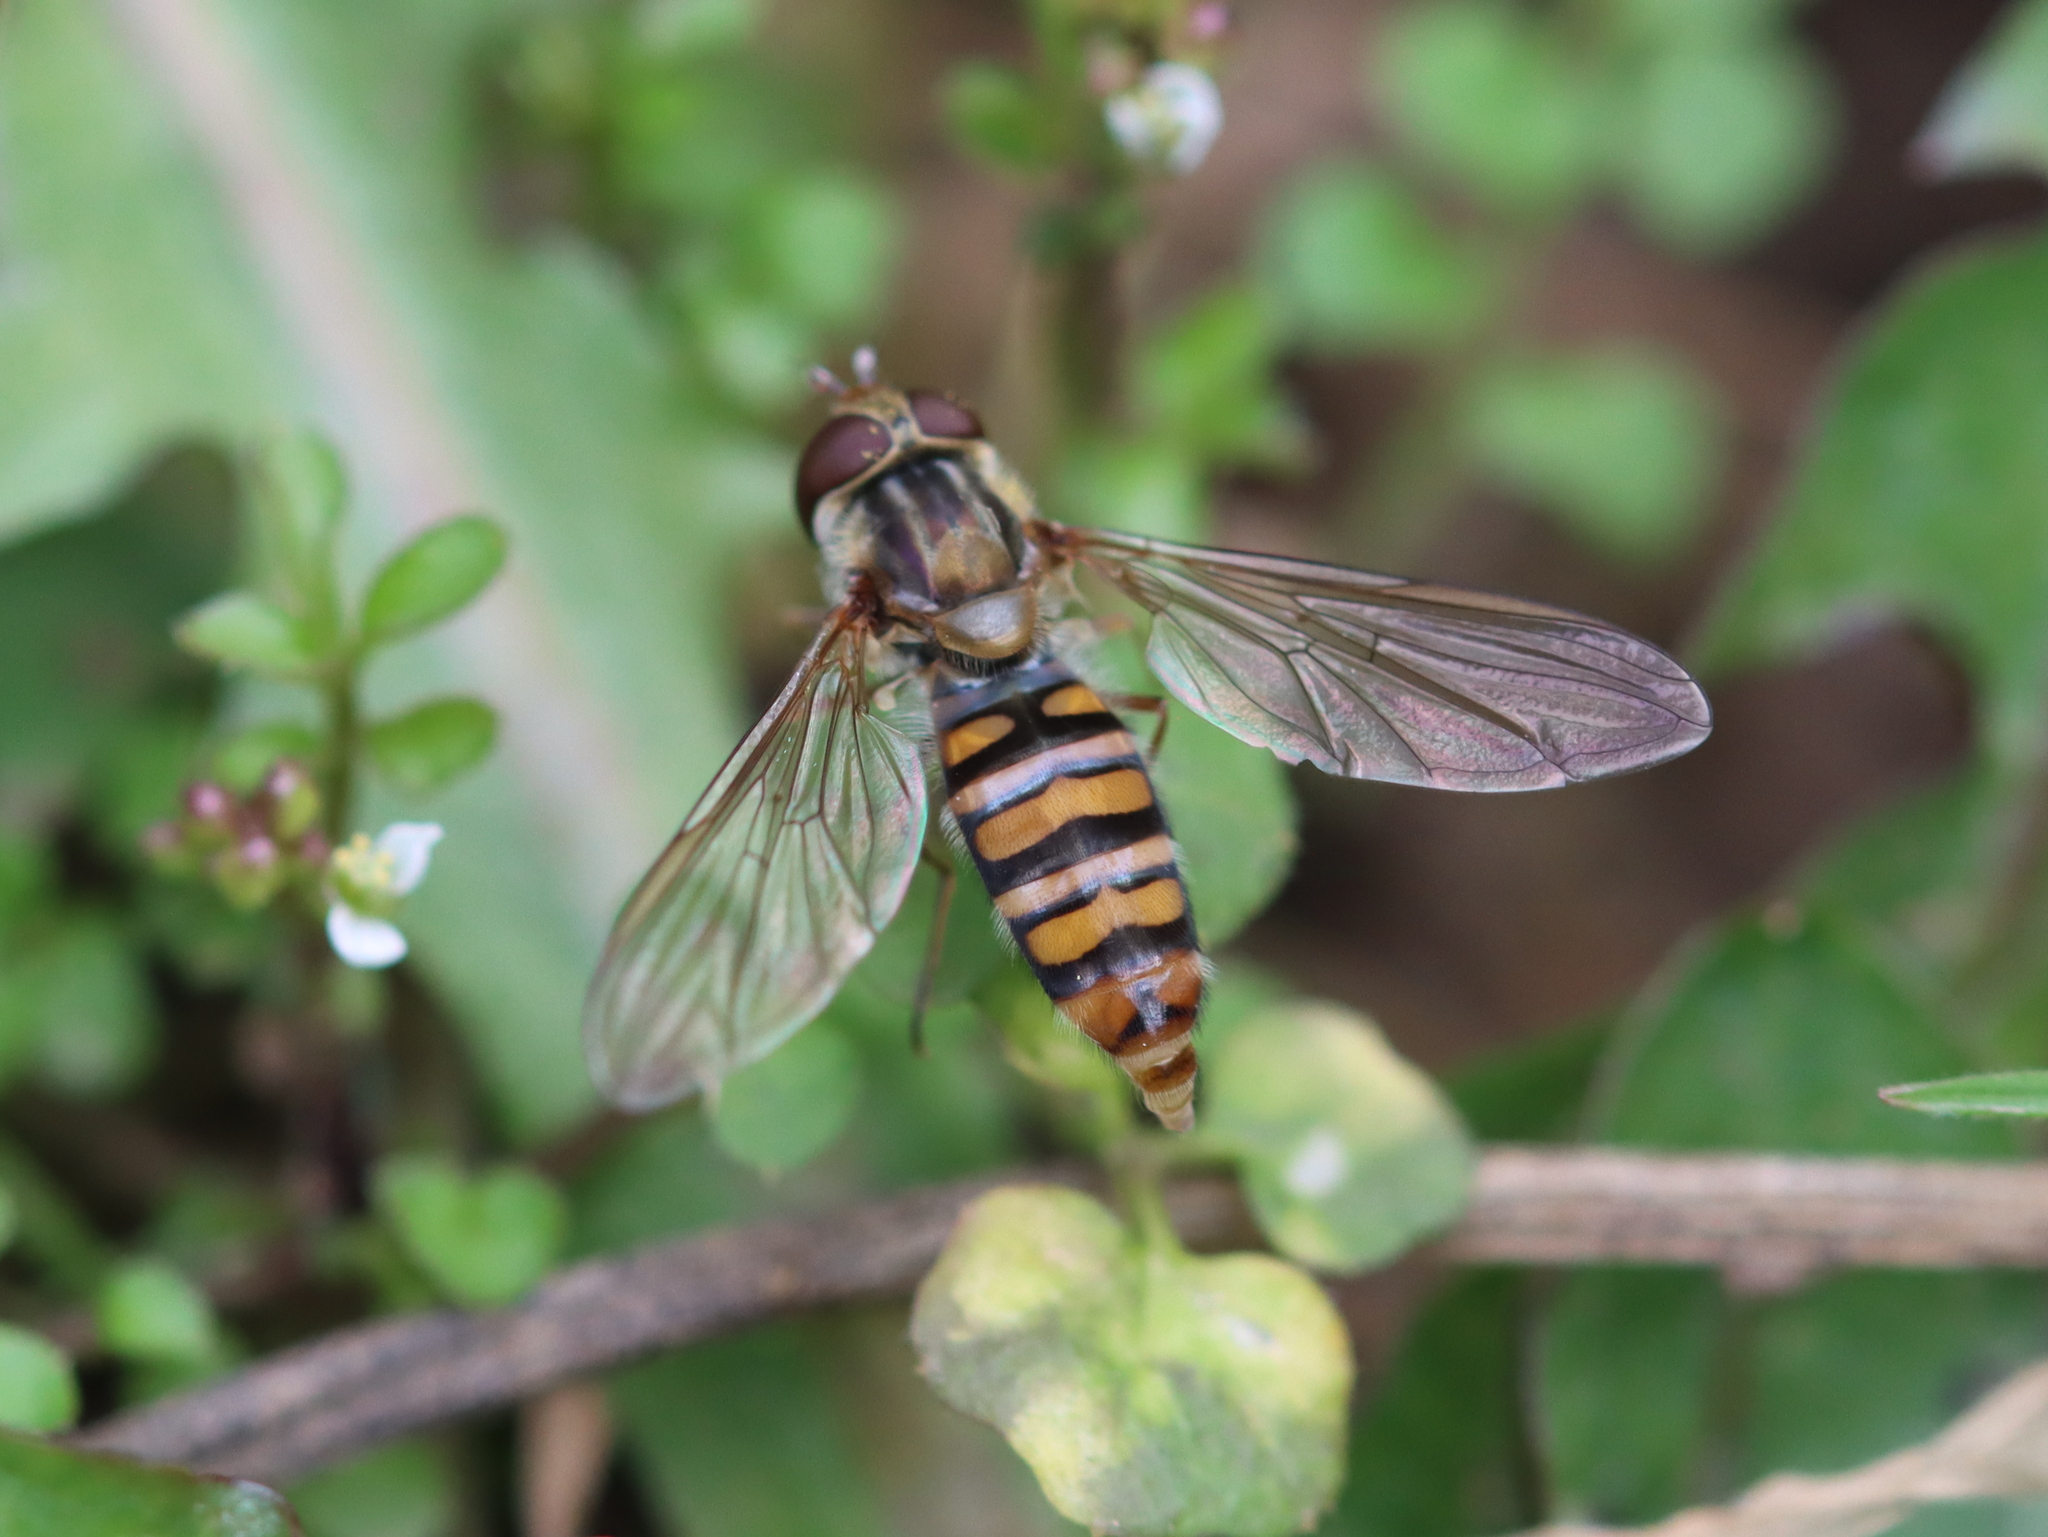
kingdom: Animalia
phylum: Arthropoda
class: Insecta
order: Diptera
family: Syrphidae
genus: Episyrphus
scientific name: Episyrphus balteatus
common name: Marmalade hoverfly
